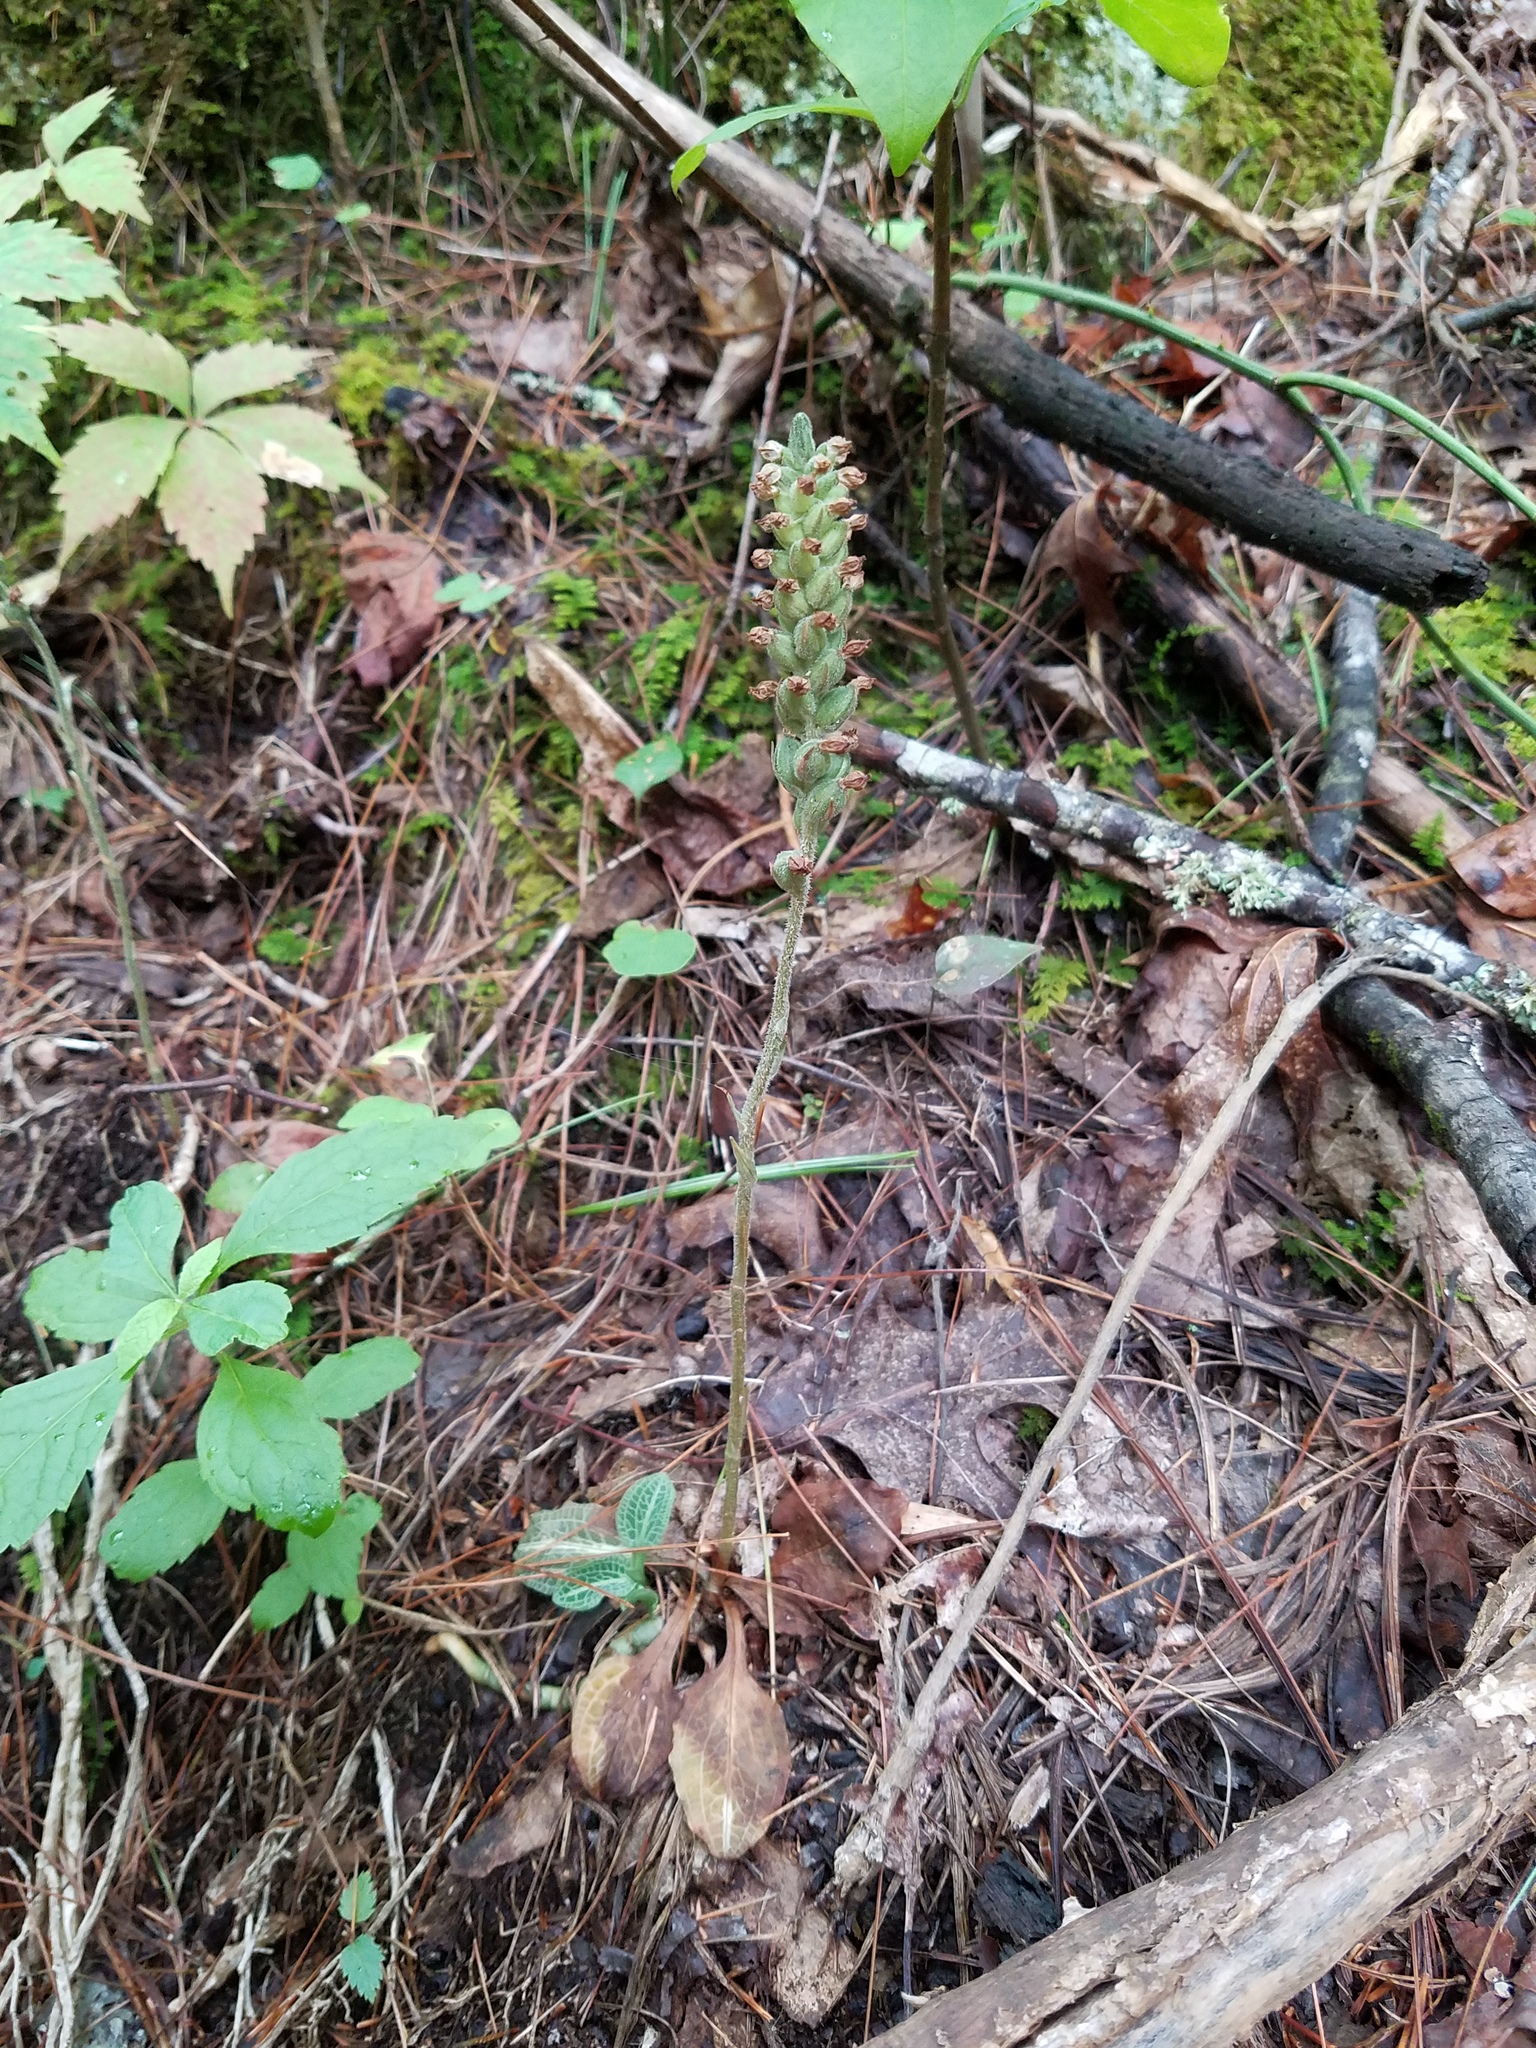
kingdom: Plantae
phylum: Tracheophyta
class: Liliopsida
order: Asparagales
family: Orchidaceae
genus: Goodyera
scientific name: Goodyera pubescens
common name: Downy rattlesnake-plantain
